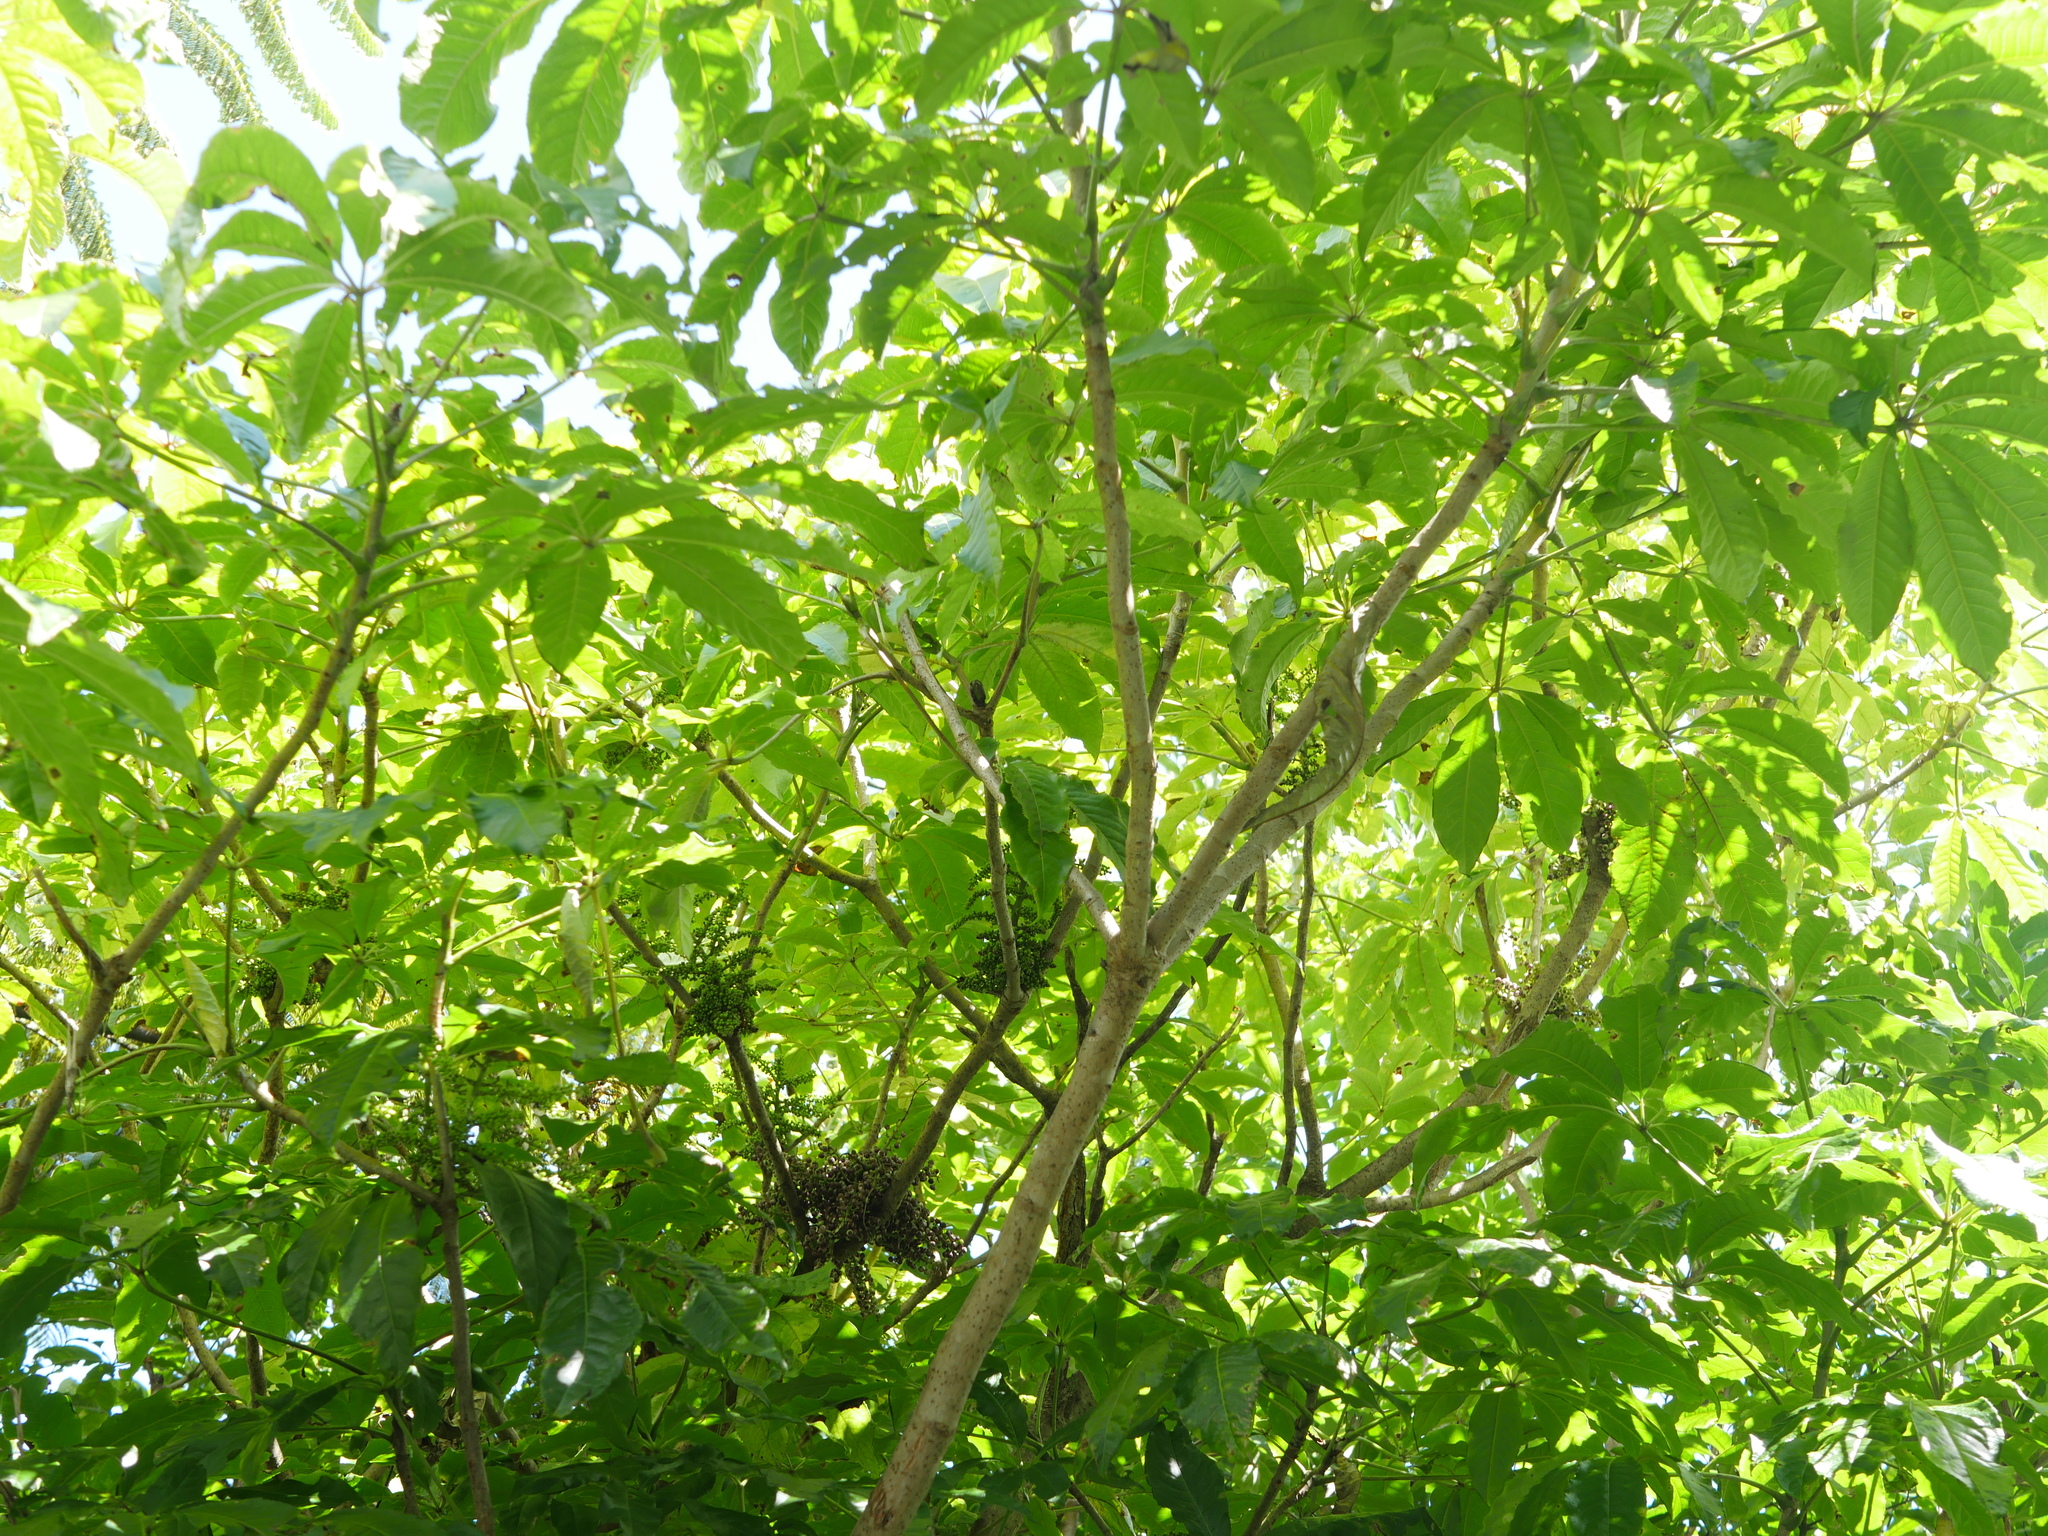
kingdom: Plantae
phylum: Tracheophyta
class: Magnoliopsida
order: Apiales
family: Araliaceae
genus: Schefflera
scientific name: Schefflera digitata
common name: Pate
